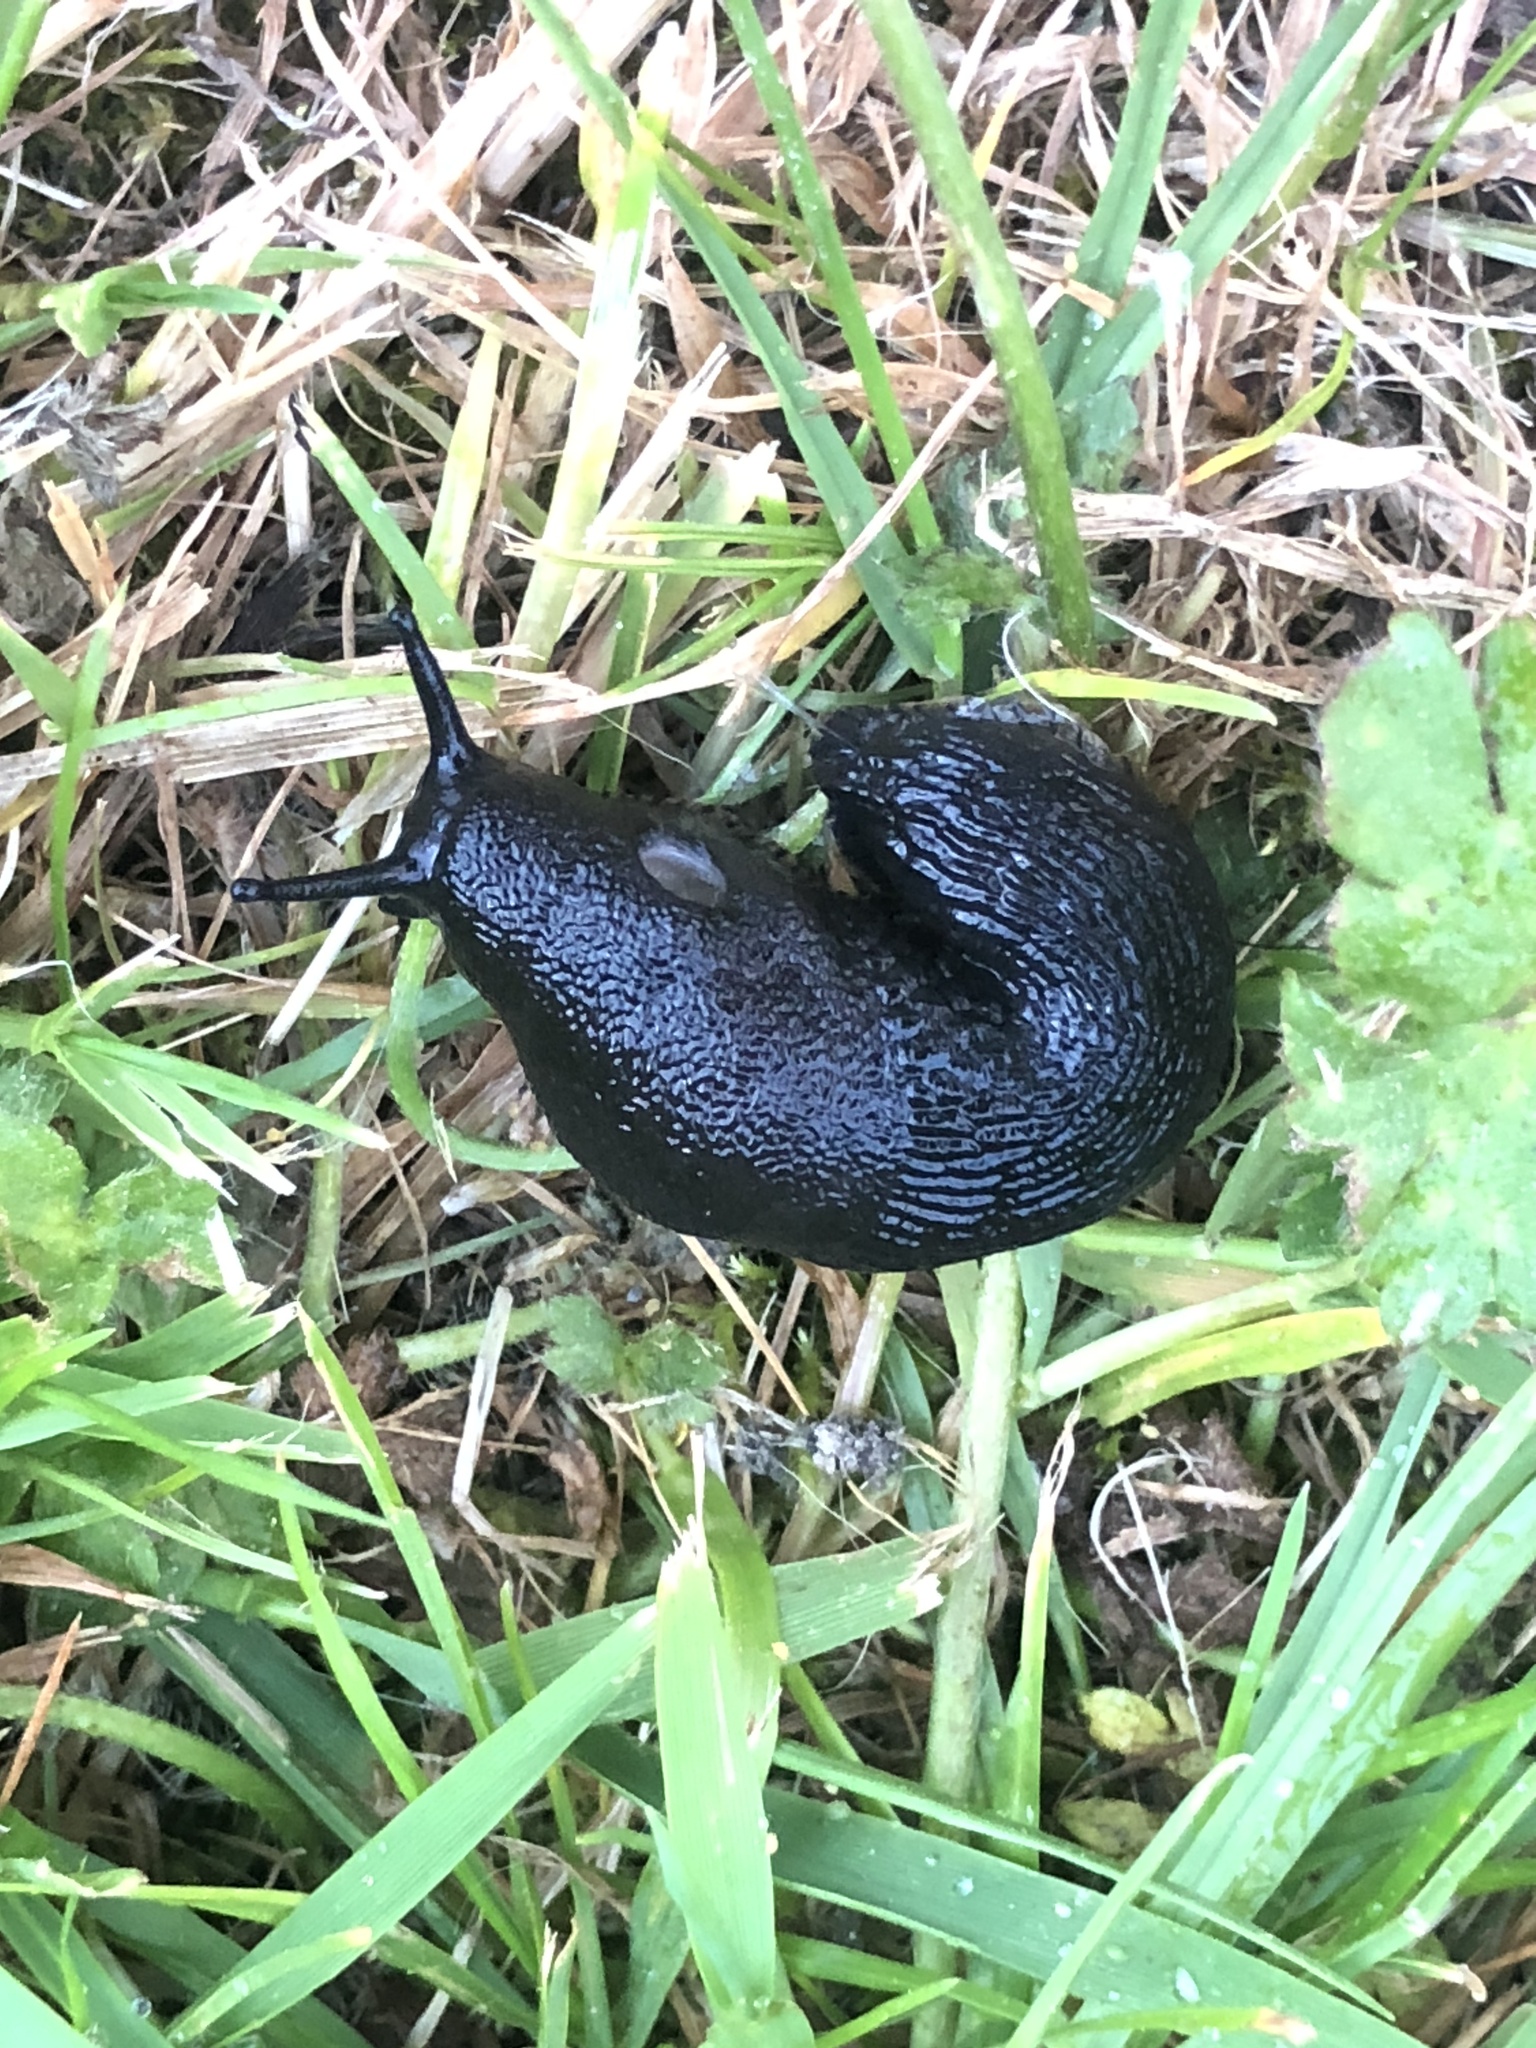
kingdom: Animalia
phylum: Mollusca
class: Gastropoda
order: Stylommatophora
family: Arionidae
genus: Arion
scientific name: Arion
